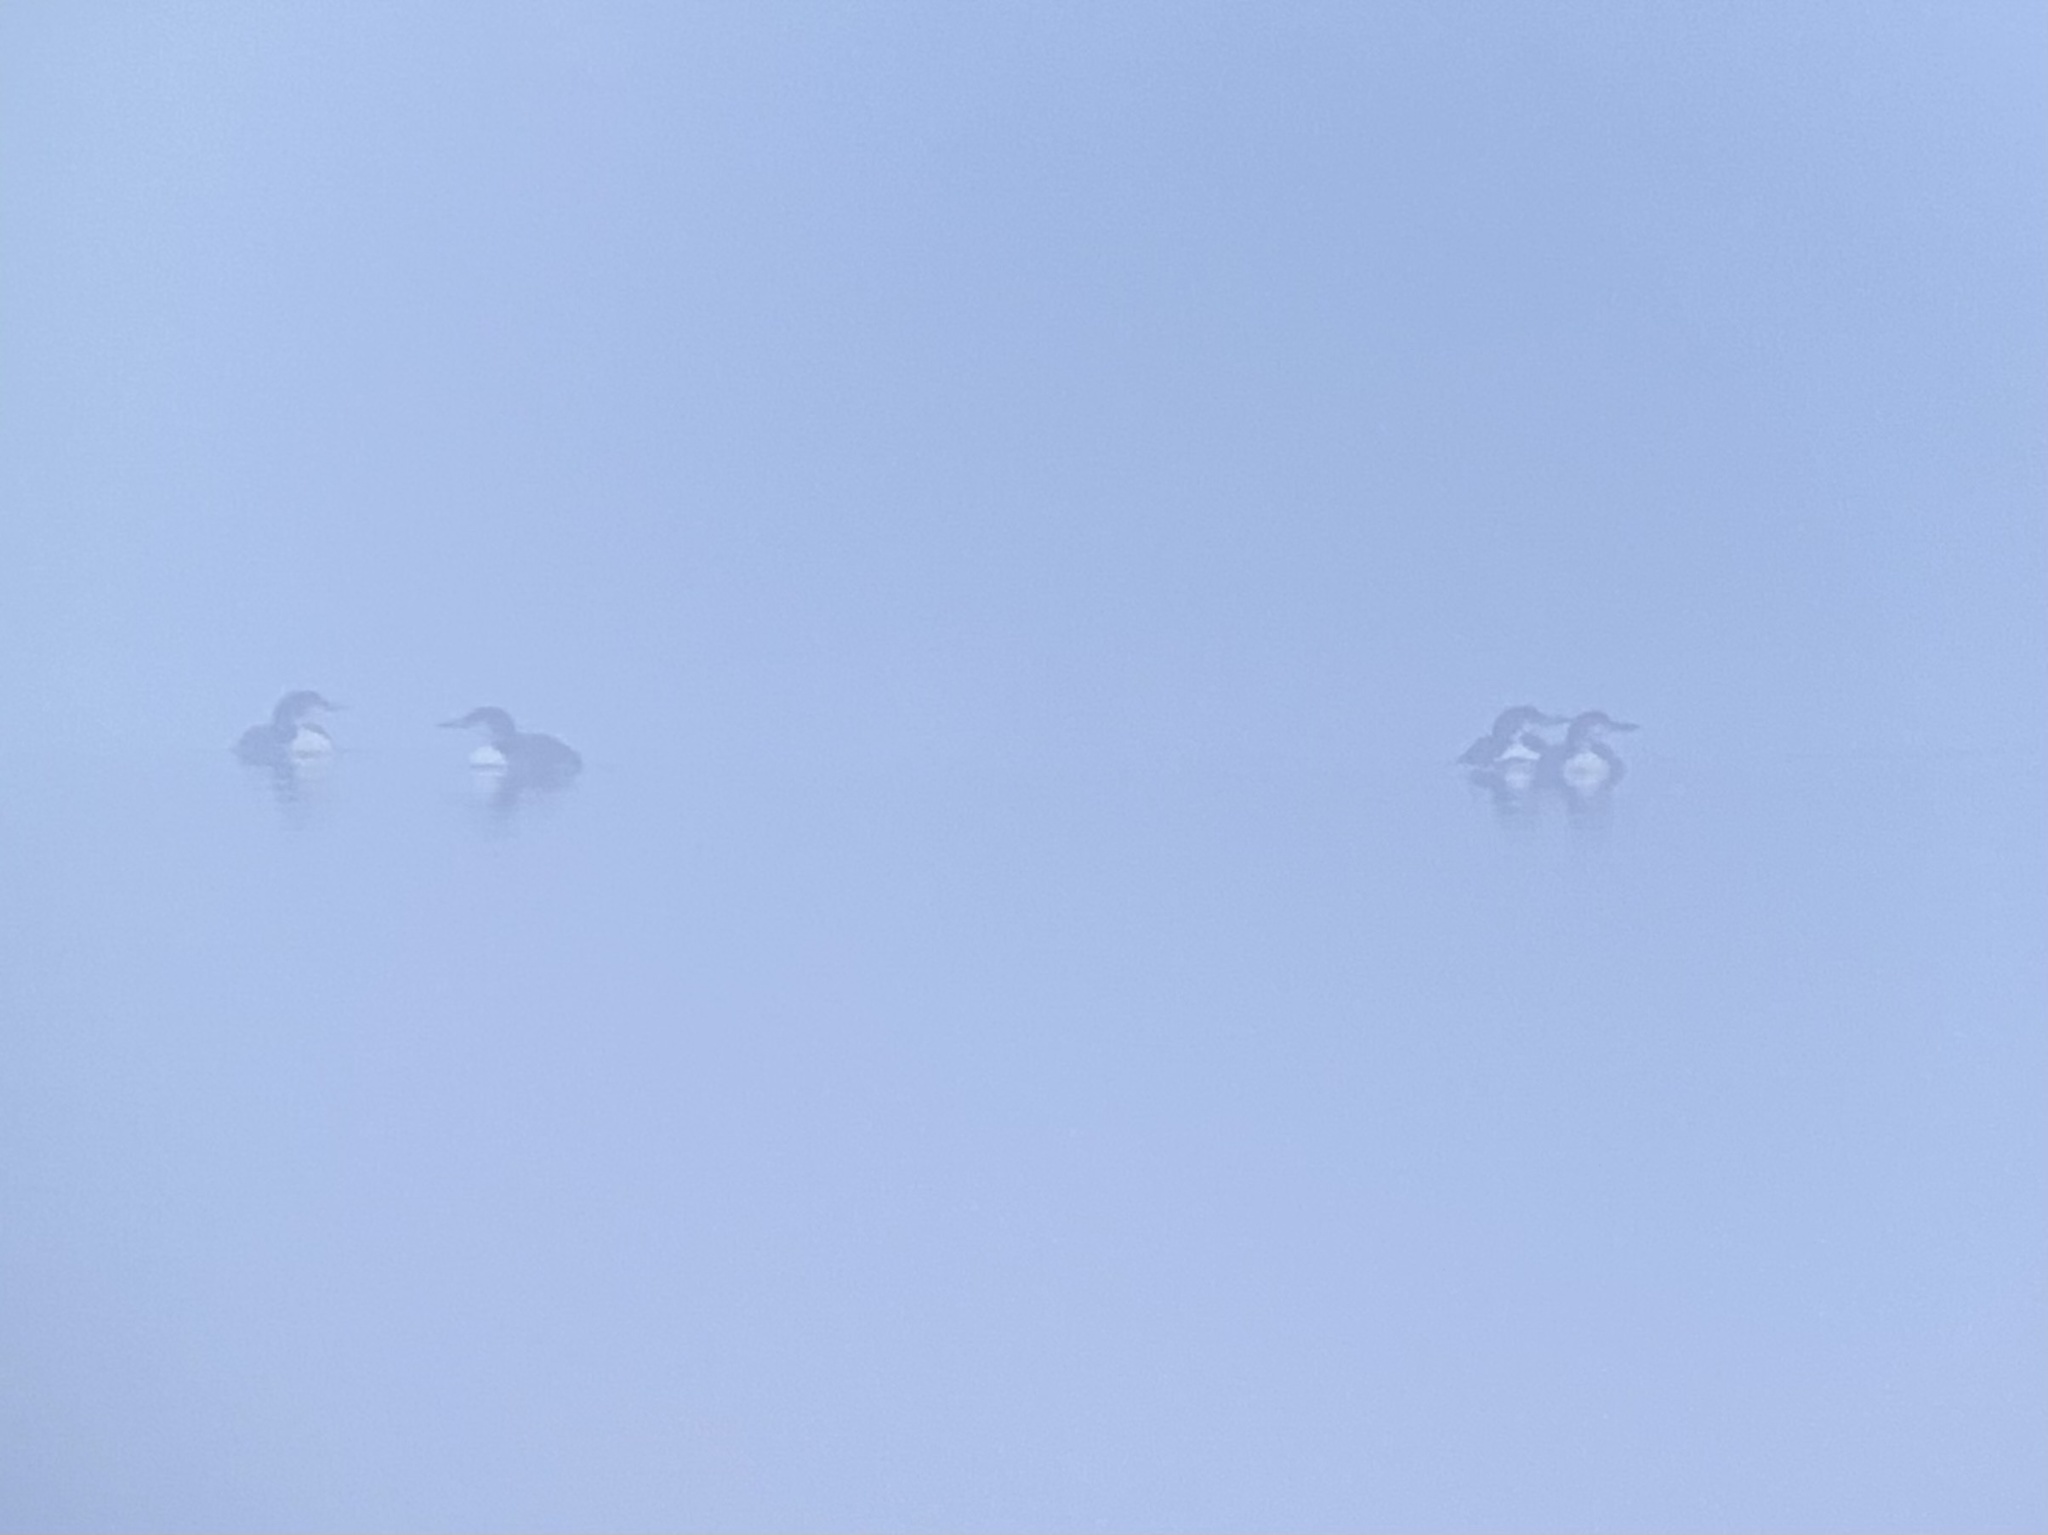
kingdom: Animalia
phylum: Chordata
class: Aves
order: Gaviiformes
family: Gaviidae
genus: Gavia
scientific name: Gavia immer
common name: Common loon
